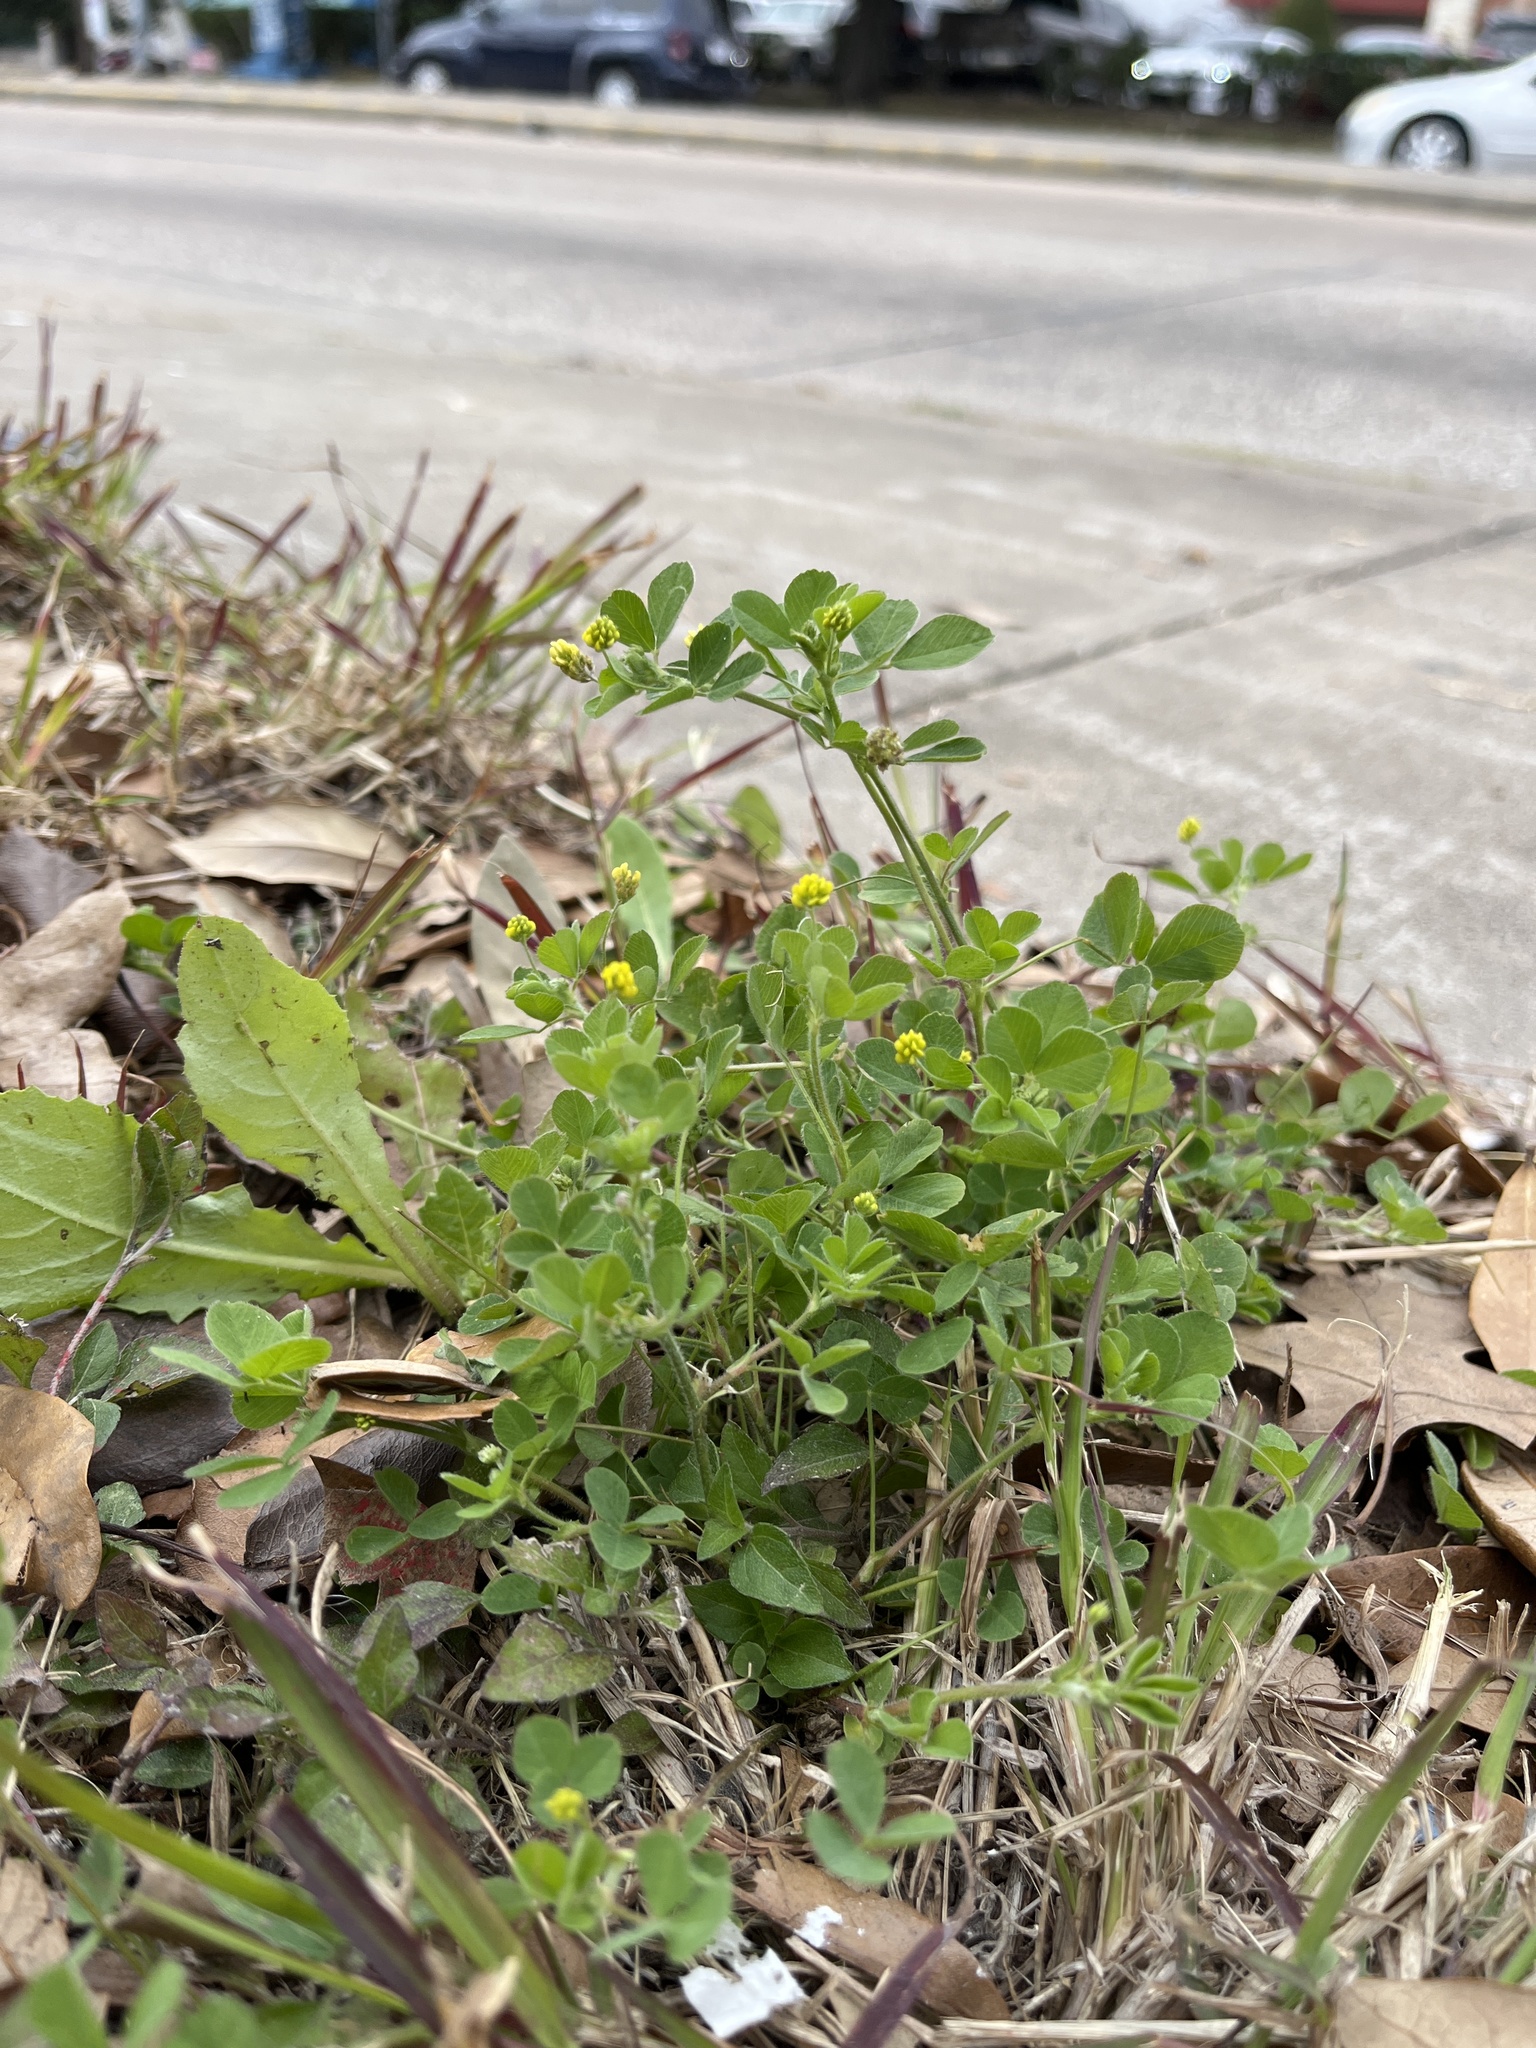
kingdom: Plantae
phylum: Tracheophyta
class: Magnoliopsida
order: Fabales
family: Fabaceae
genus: Medicago
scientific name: Medicago lupulina
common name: Black medick
